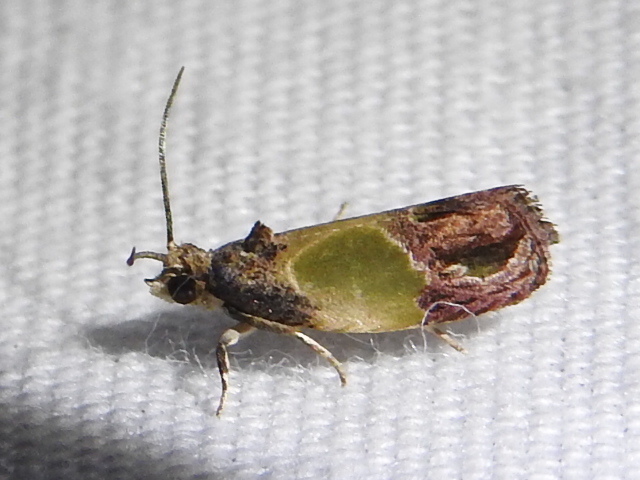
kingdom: Animalia
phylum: Arthropoda
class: Insecta
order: Lepidoptera
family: Tortricidae
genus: Eumarozia
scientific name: Eumarozia malachitana
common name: Sculptured moth
